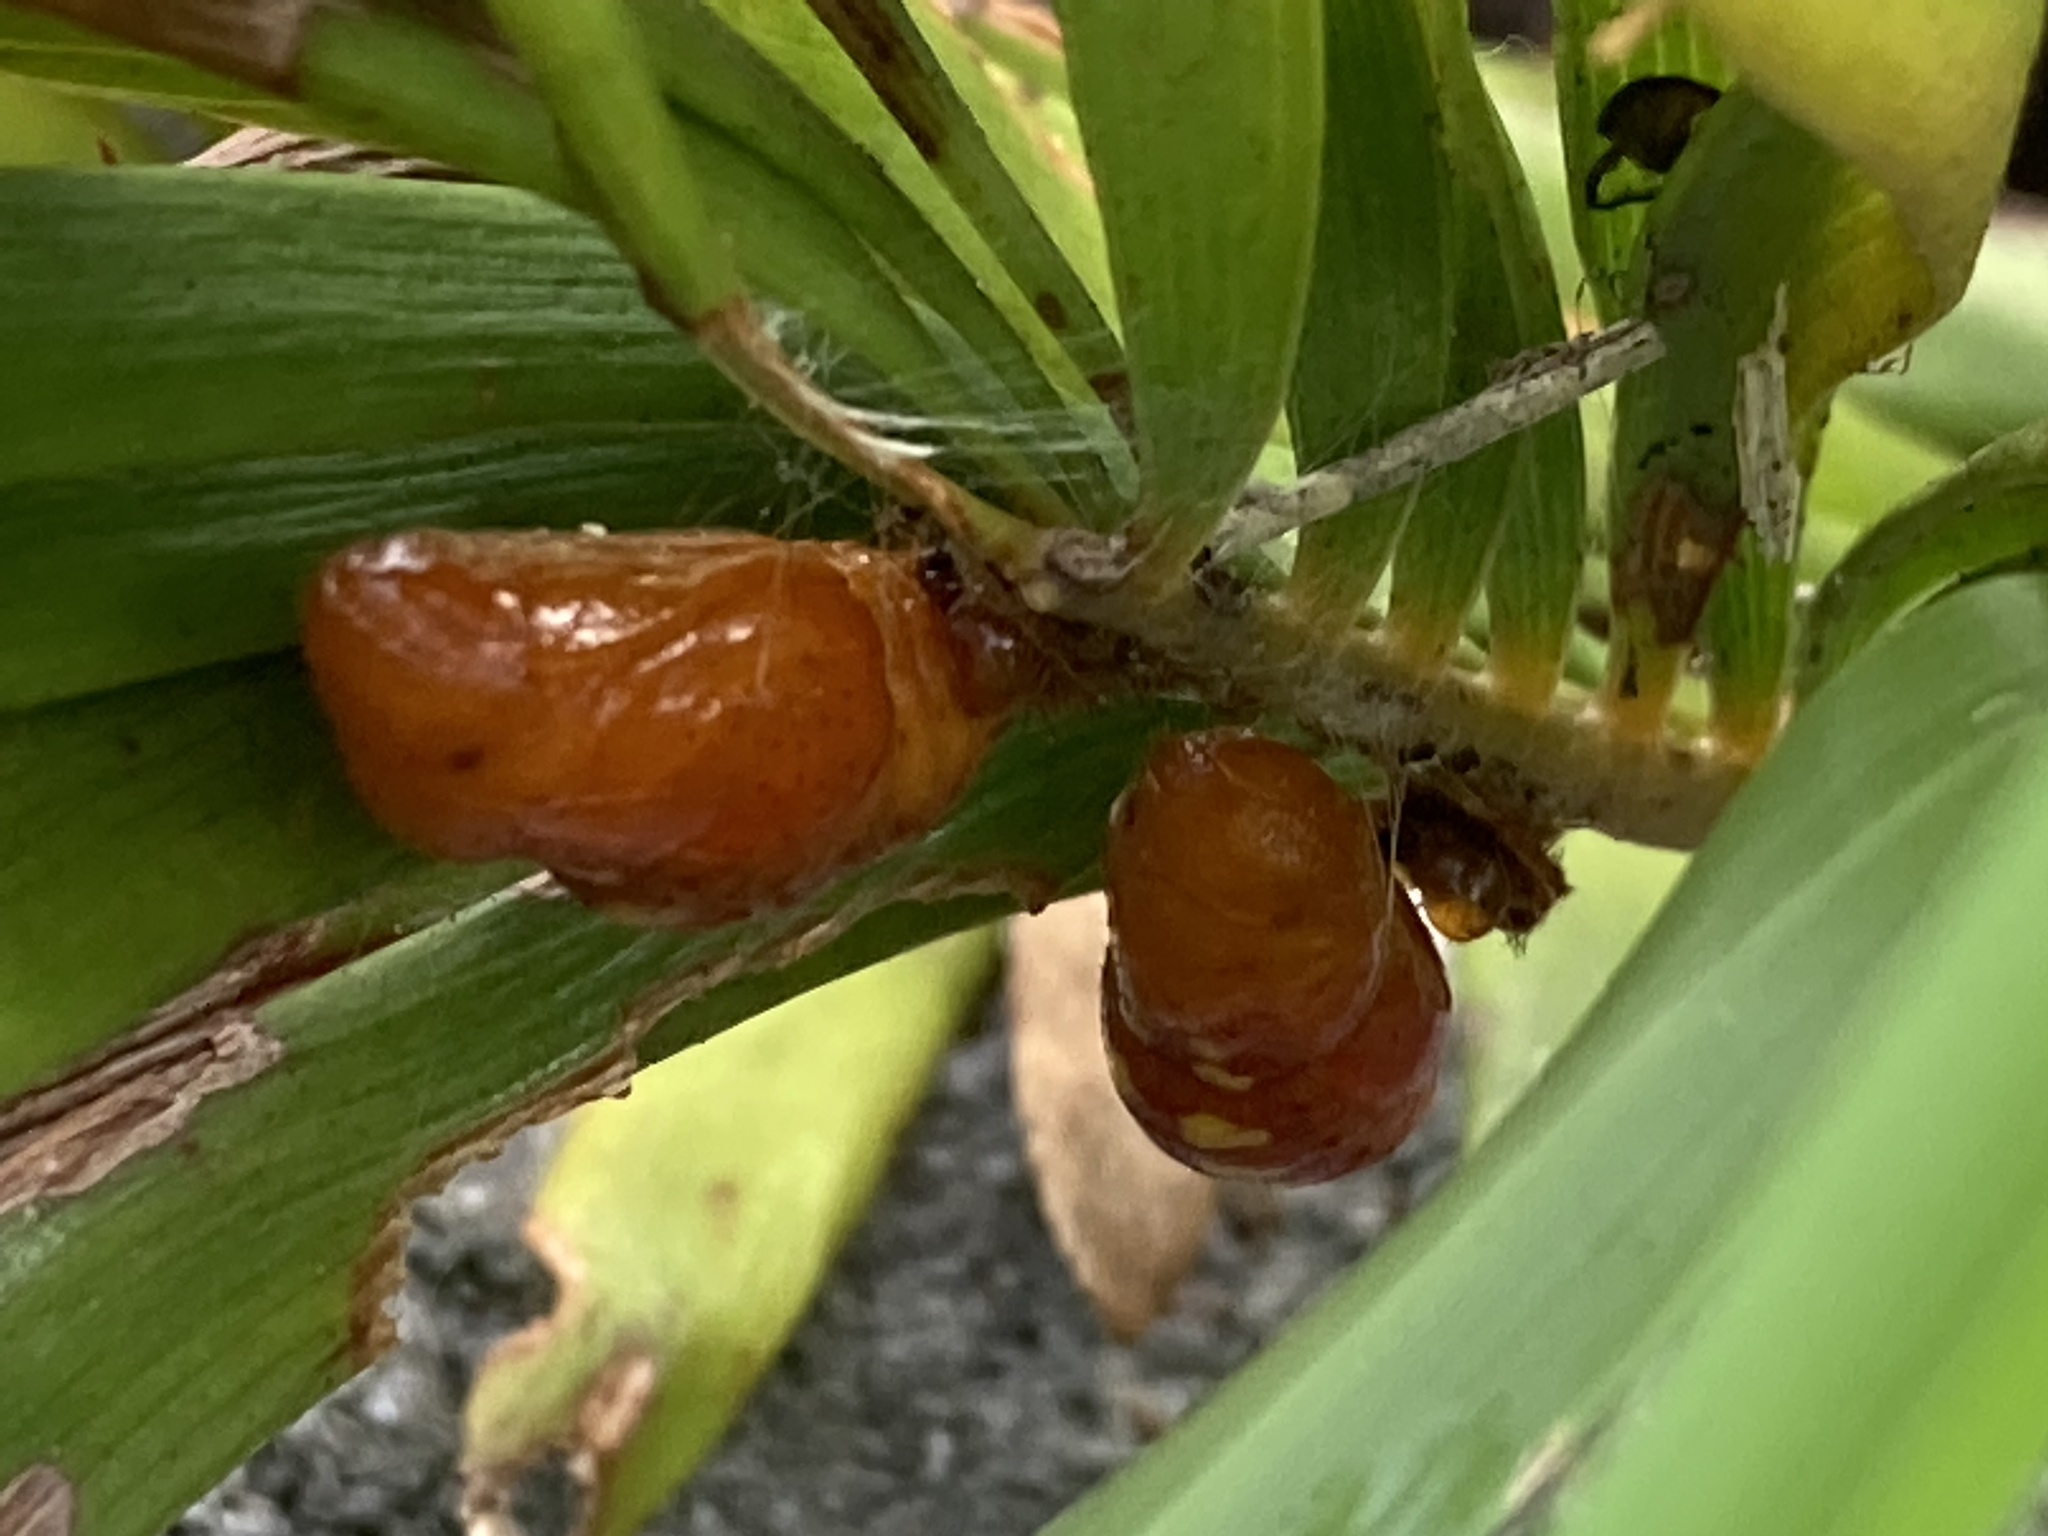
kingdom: Animalia
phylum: Arthropoda
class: Insecta
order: Lepidoptera
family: Lycaenidae
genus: Eumaeus
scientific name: Eumaeus atala
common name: Atala
